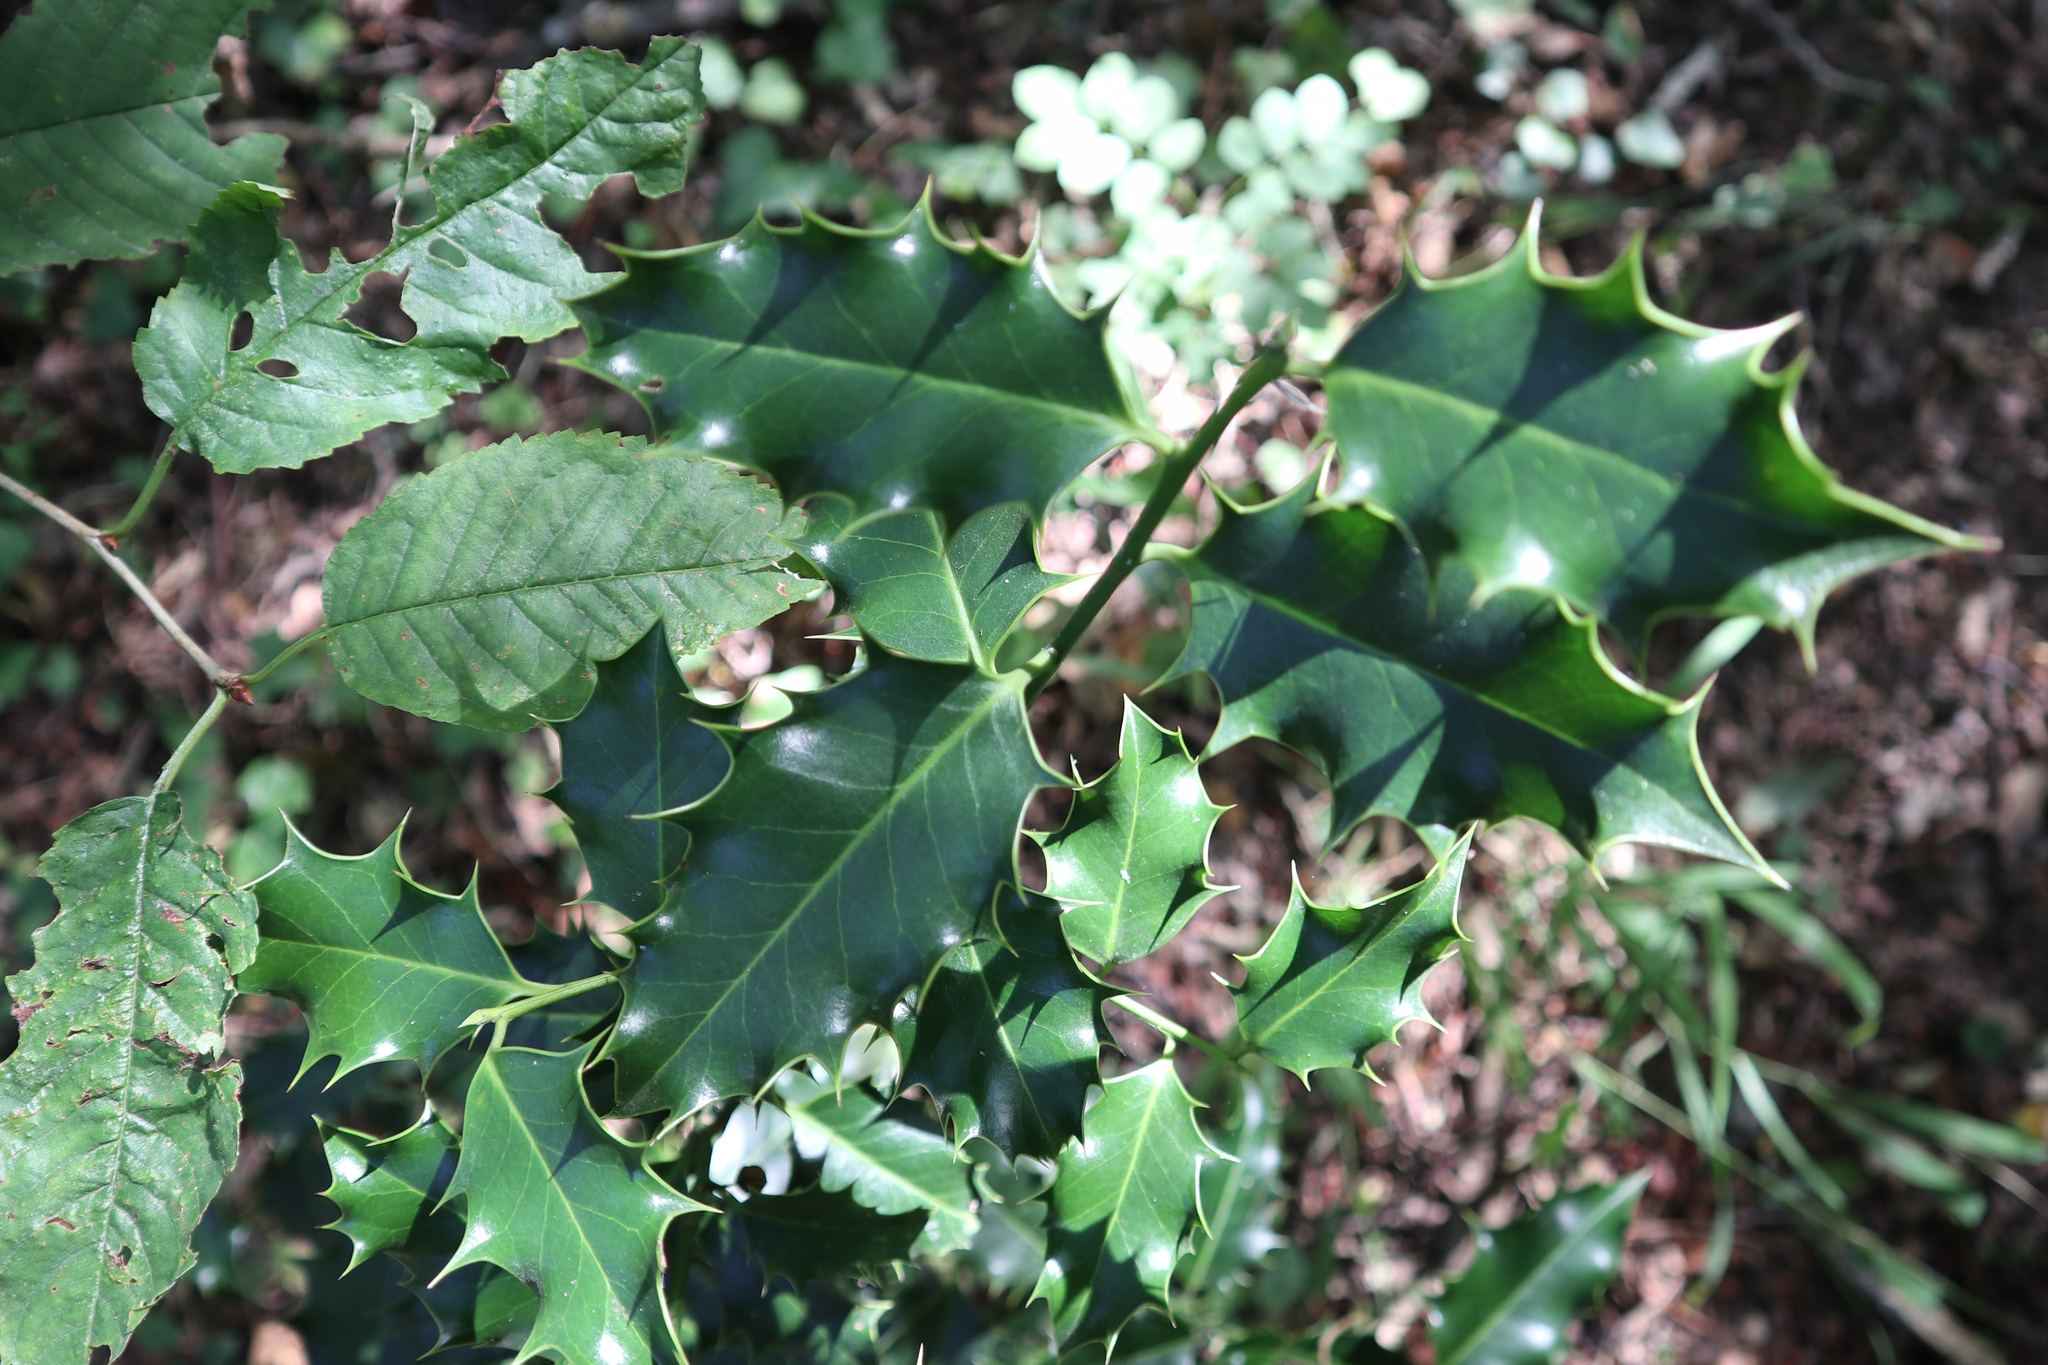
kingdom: Plantae
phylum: Tracheophyta
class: Magnoliopsida
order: Aquifoliales
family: Aquifoliaceae
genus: Ilex
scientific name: Ilex aquifolium
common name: English holly
